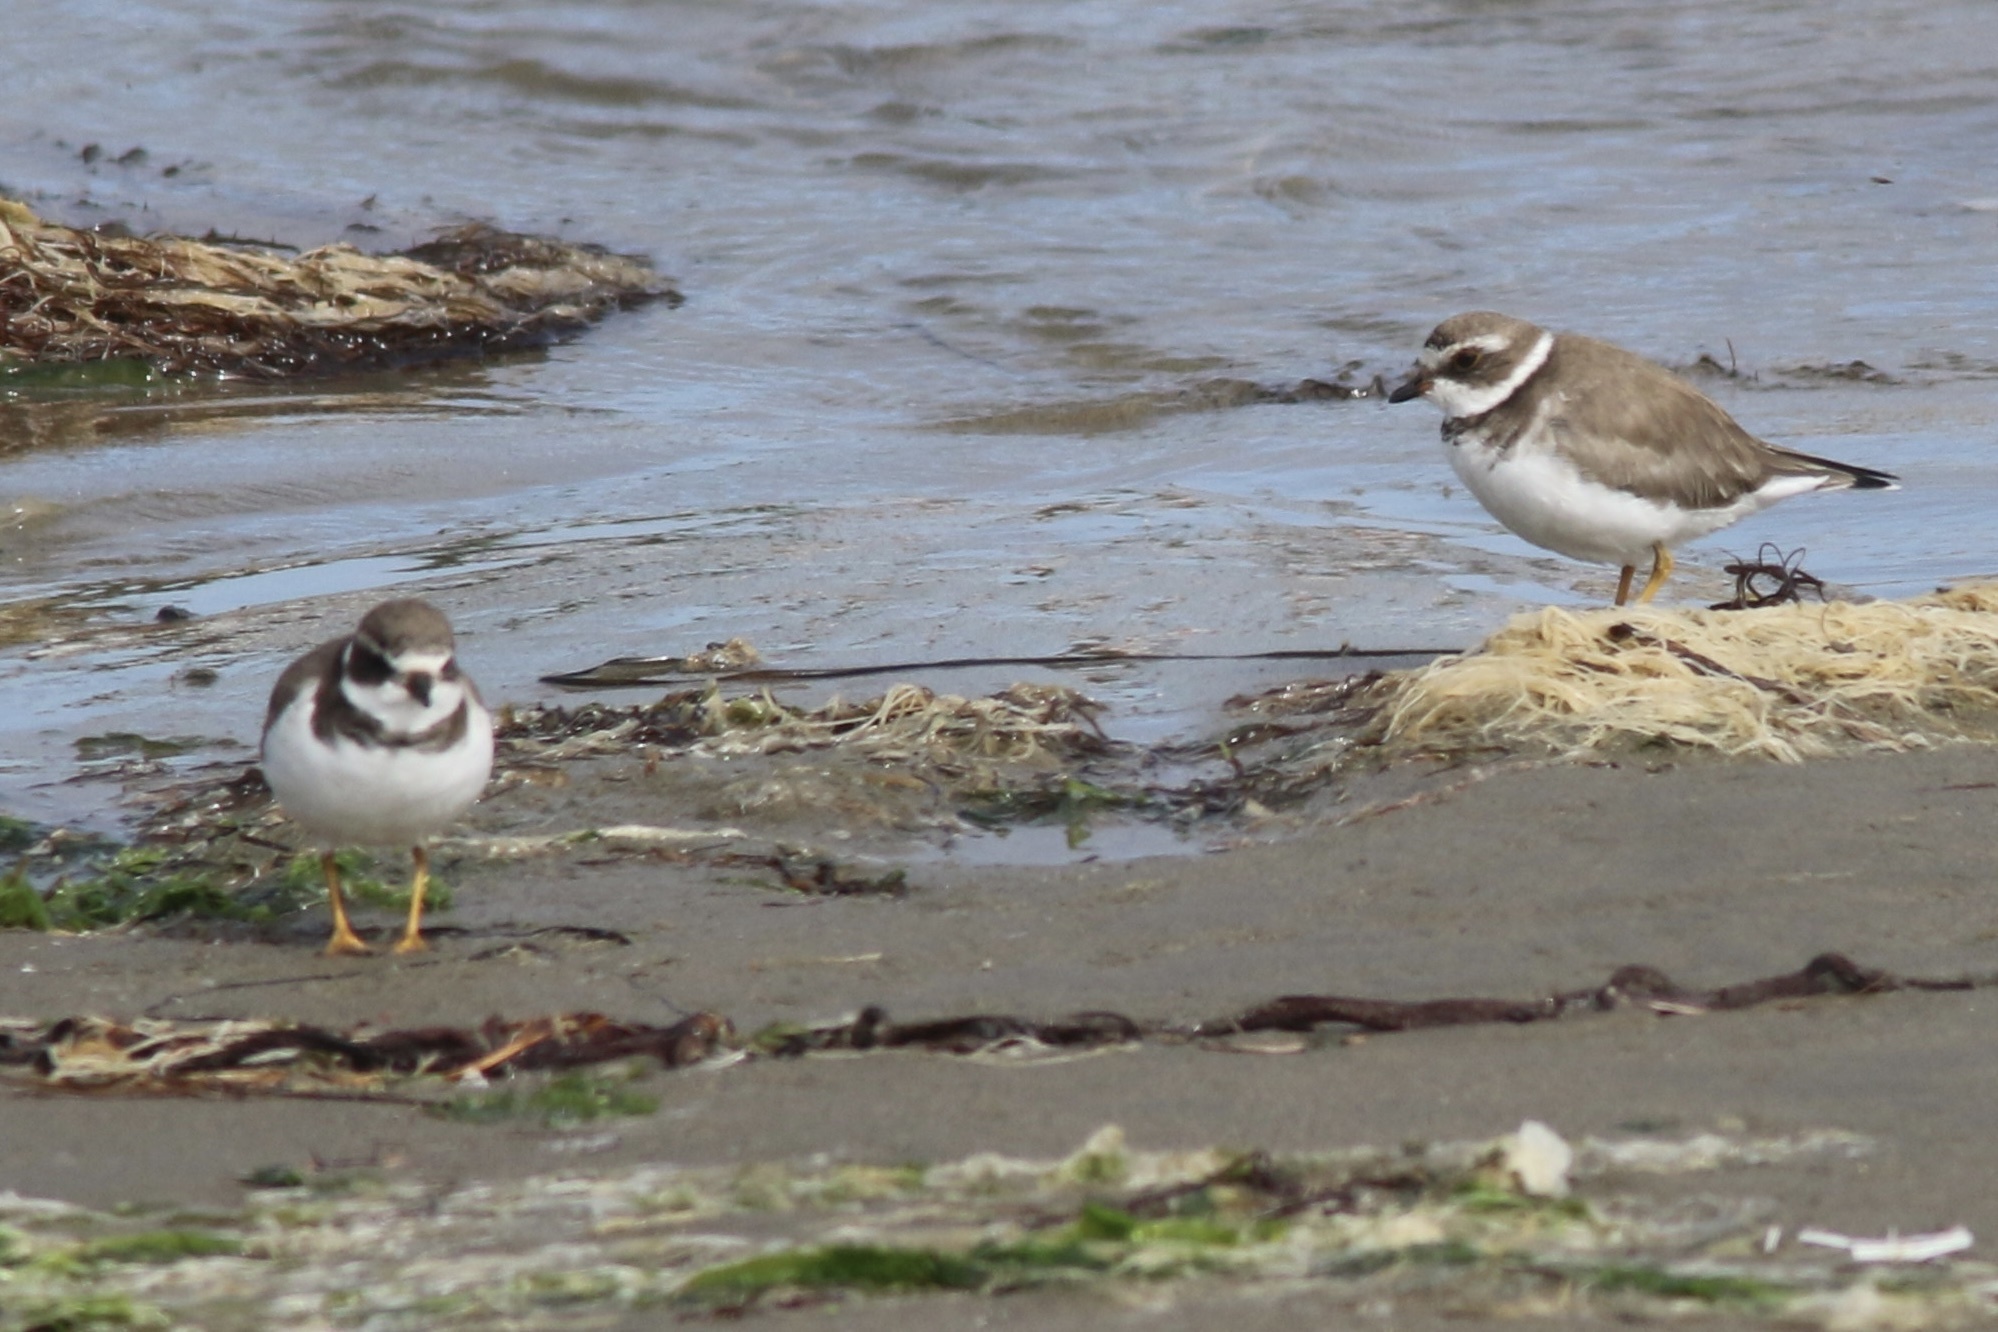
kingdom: Animalia
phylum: Chordata
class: Aves
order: Charadriiformes
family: Charadriidae
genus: Charadrius
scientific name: Charadrius semipalmatus
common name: Semipalmated plover
